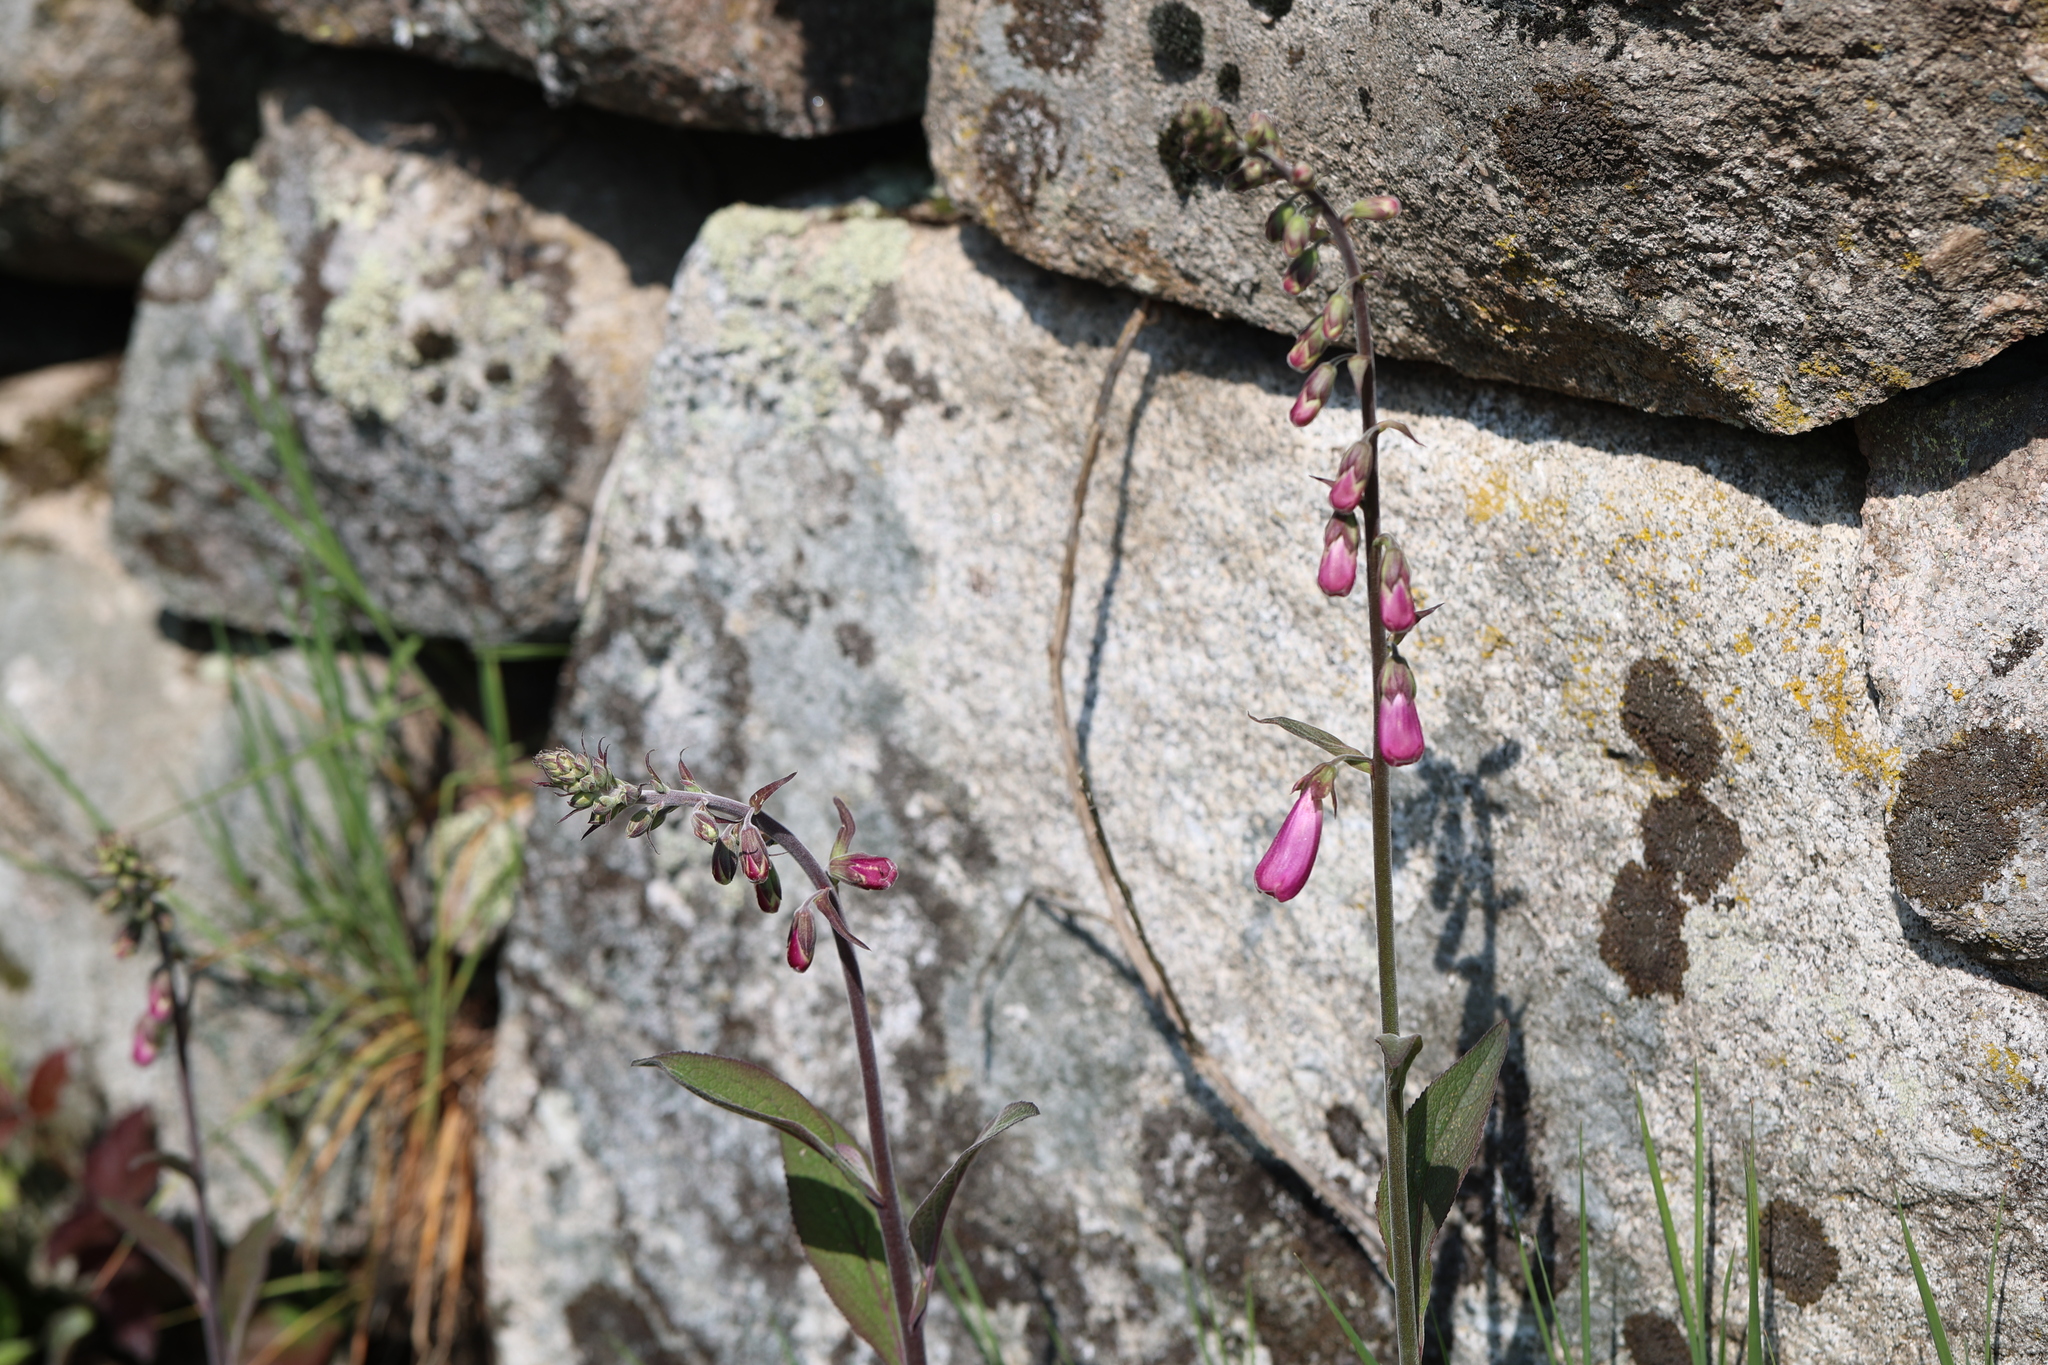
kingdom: Plantae
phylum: Tracheophyta
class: Magnoliopsida
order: Lamiales
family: Plantaginaceae
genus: Digitalis
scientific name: Digitalis purpurea
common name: Foxglove
